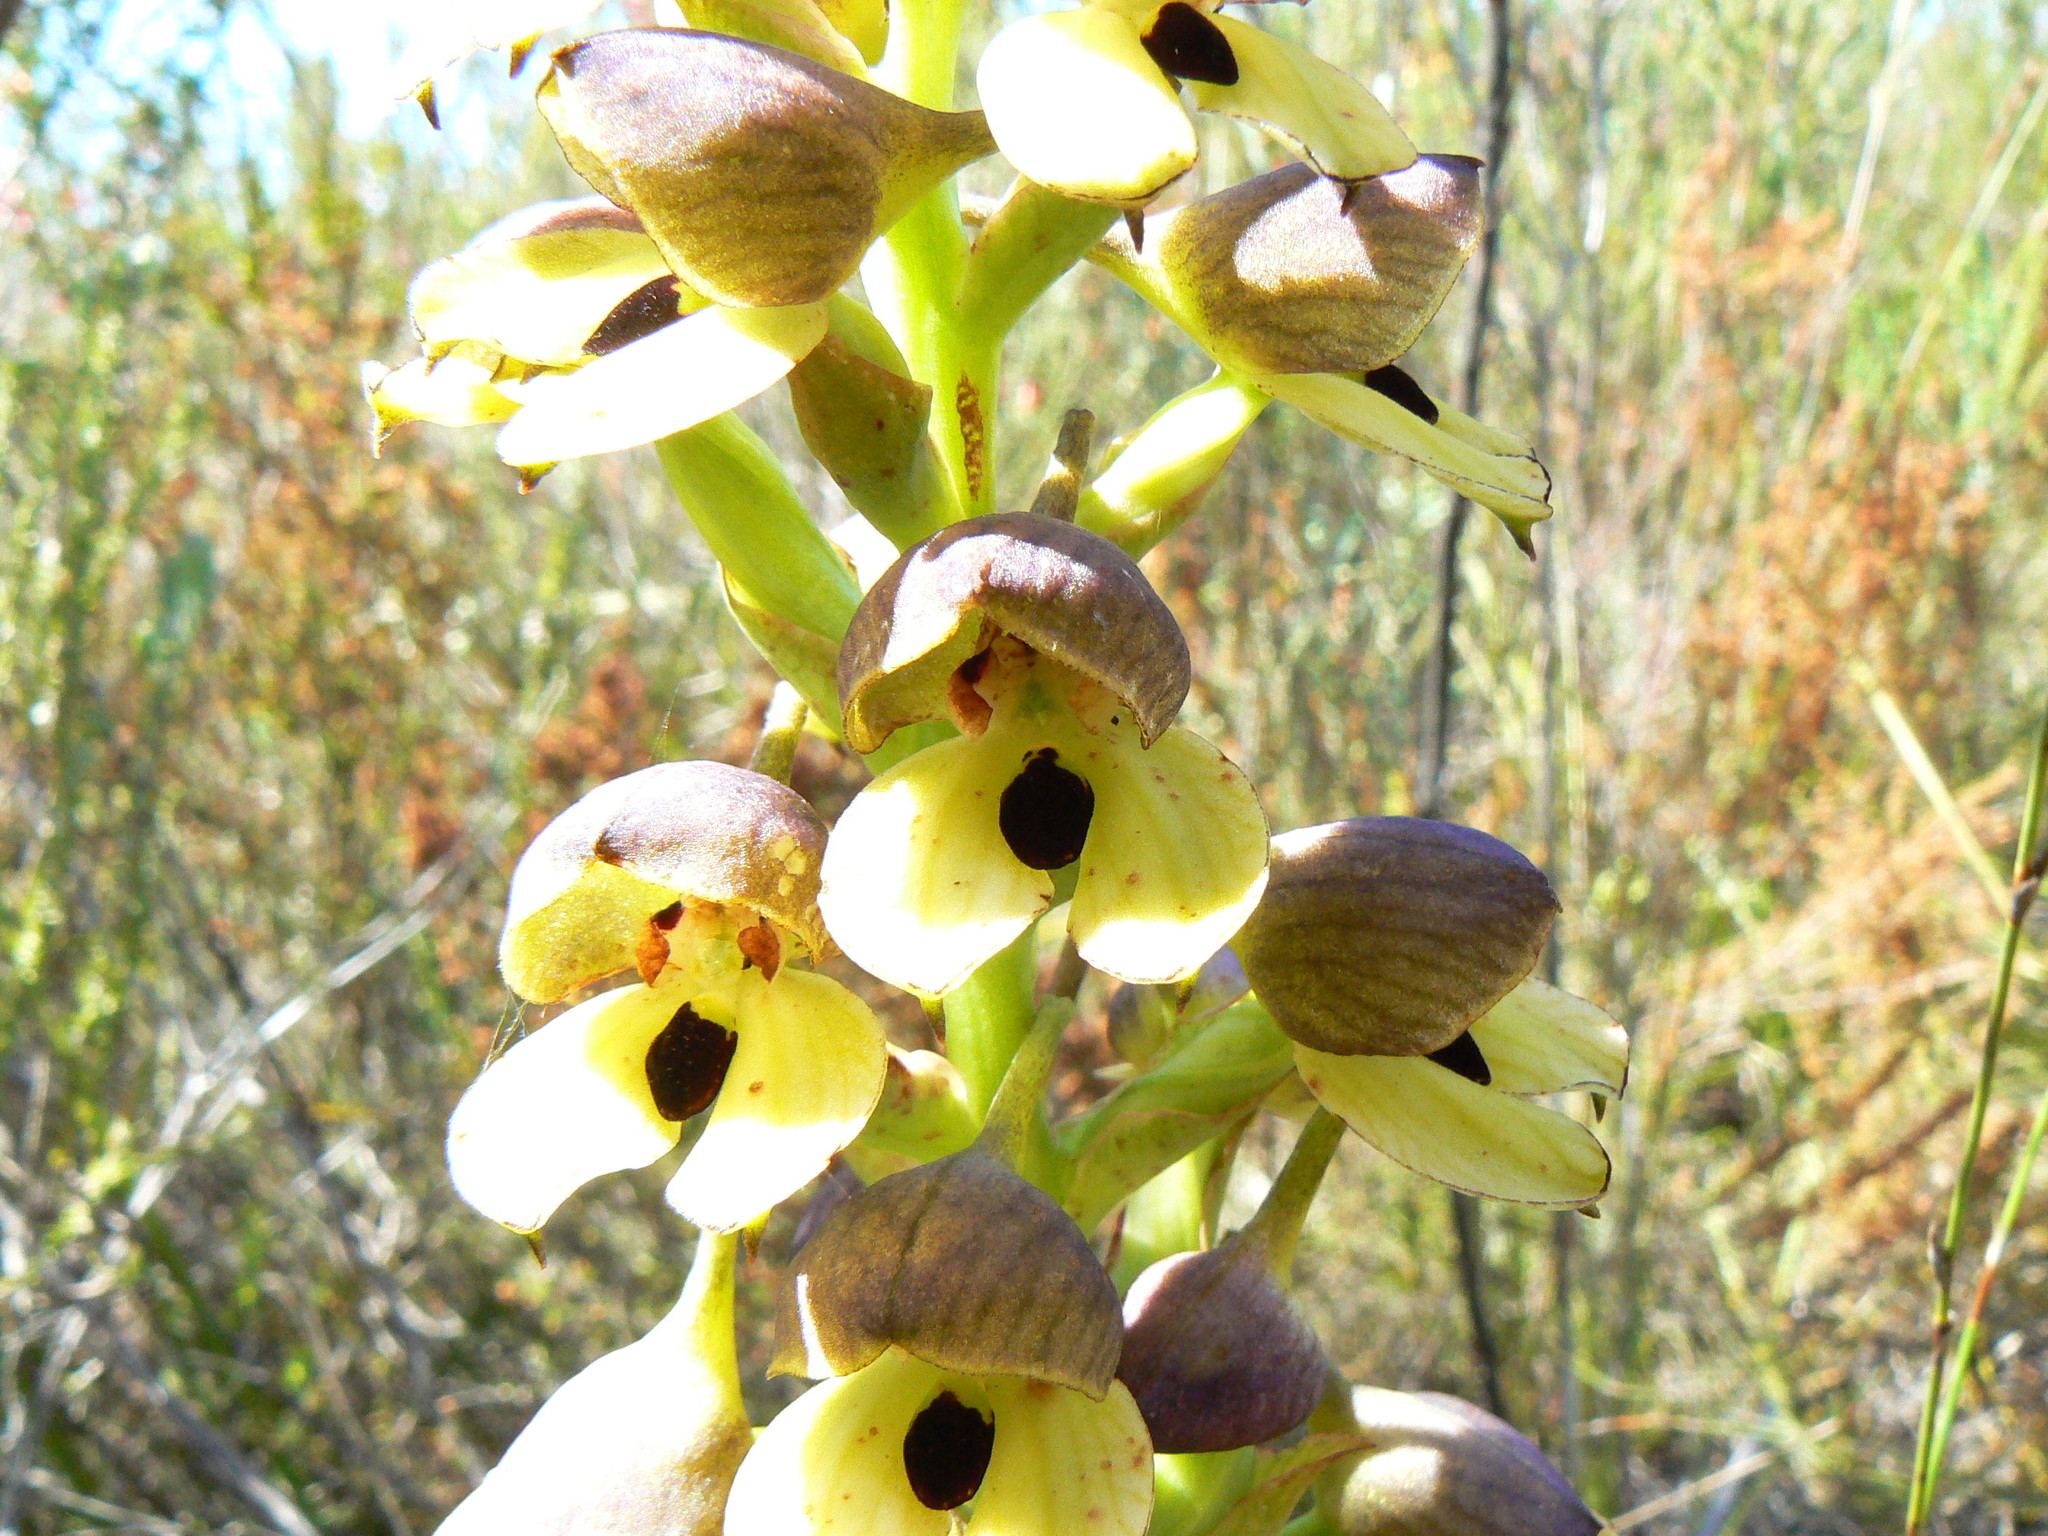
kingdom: Plantae
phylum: Tracheophyta
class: Liliopsida
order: Asparagales
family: Orchidaceae
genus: Disa
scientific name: Disa cornuta
